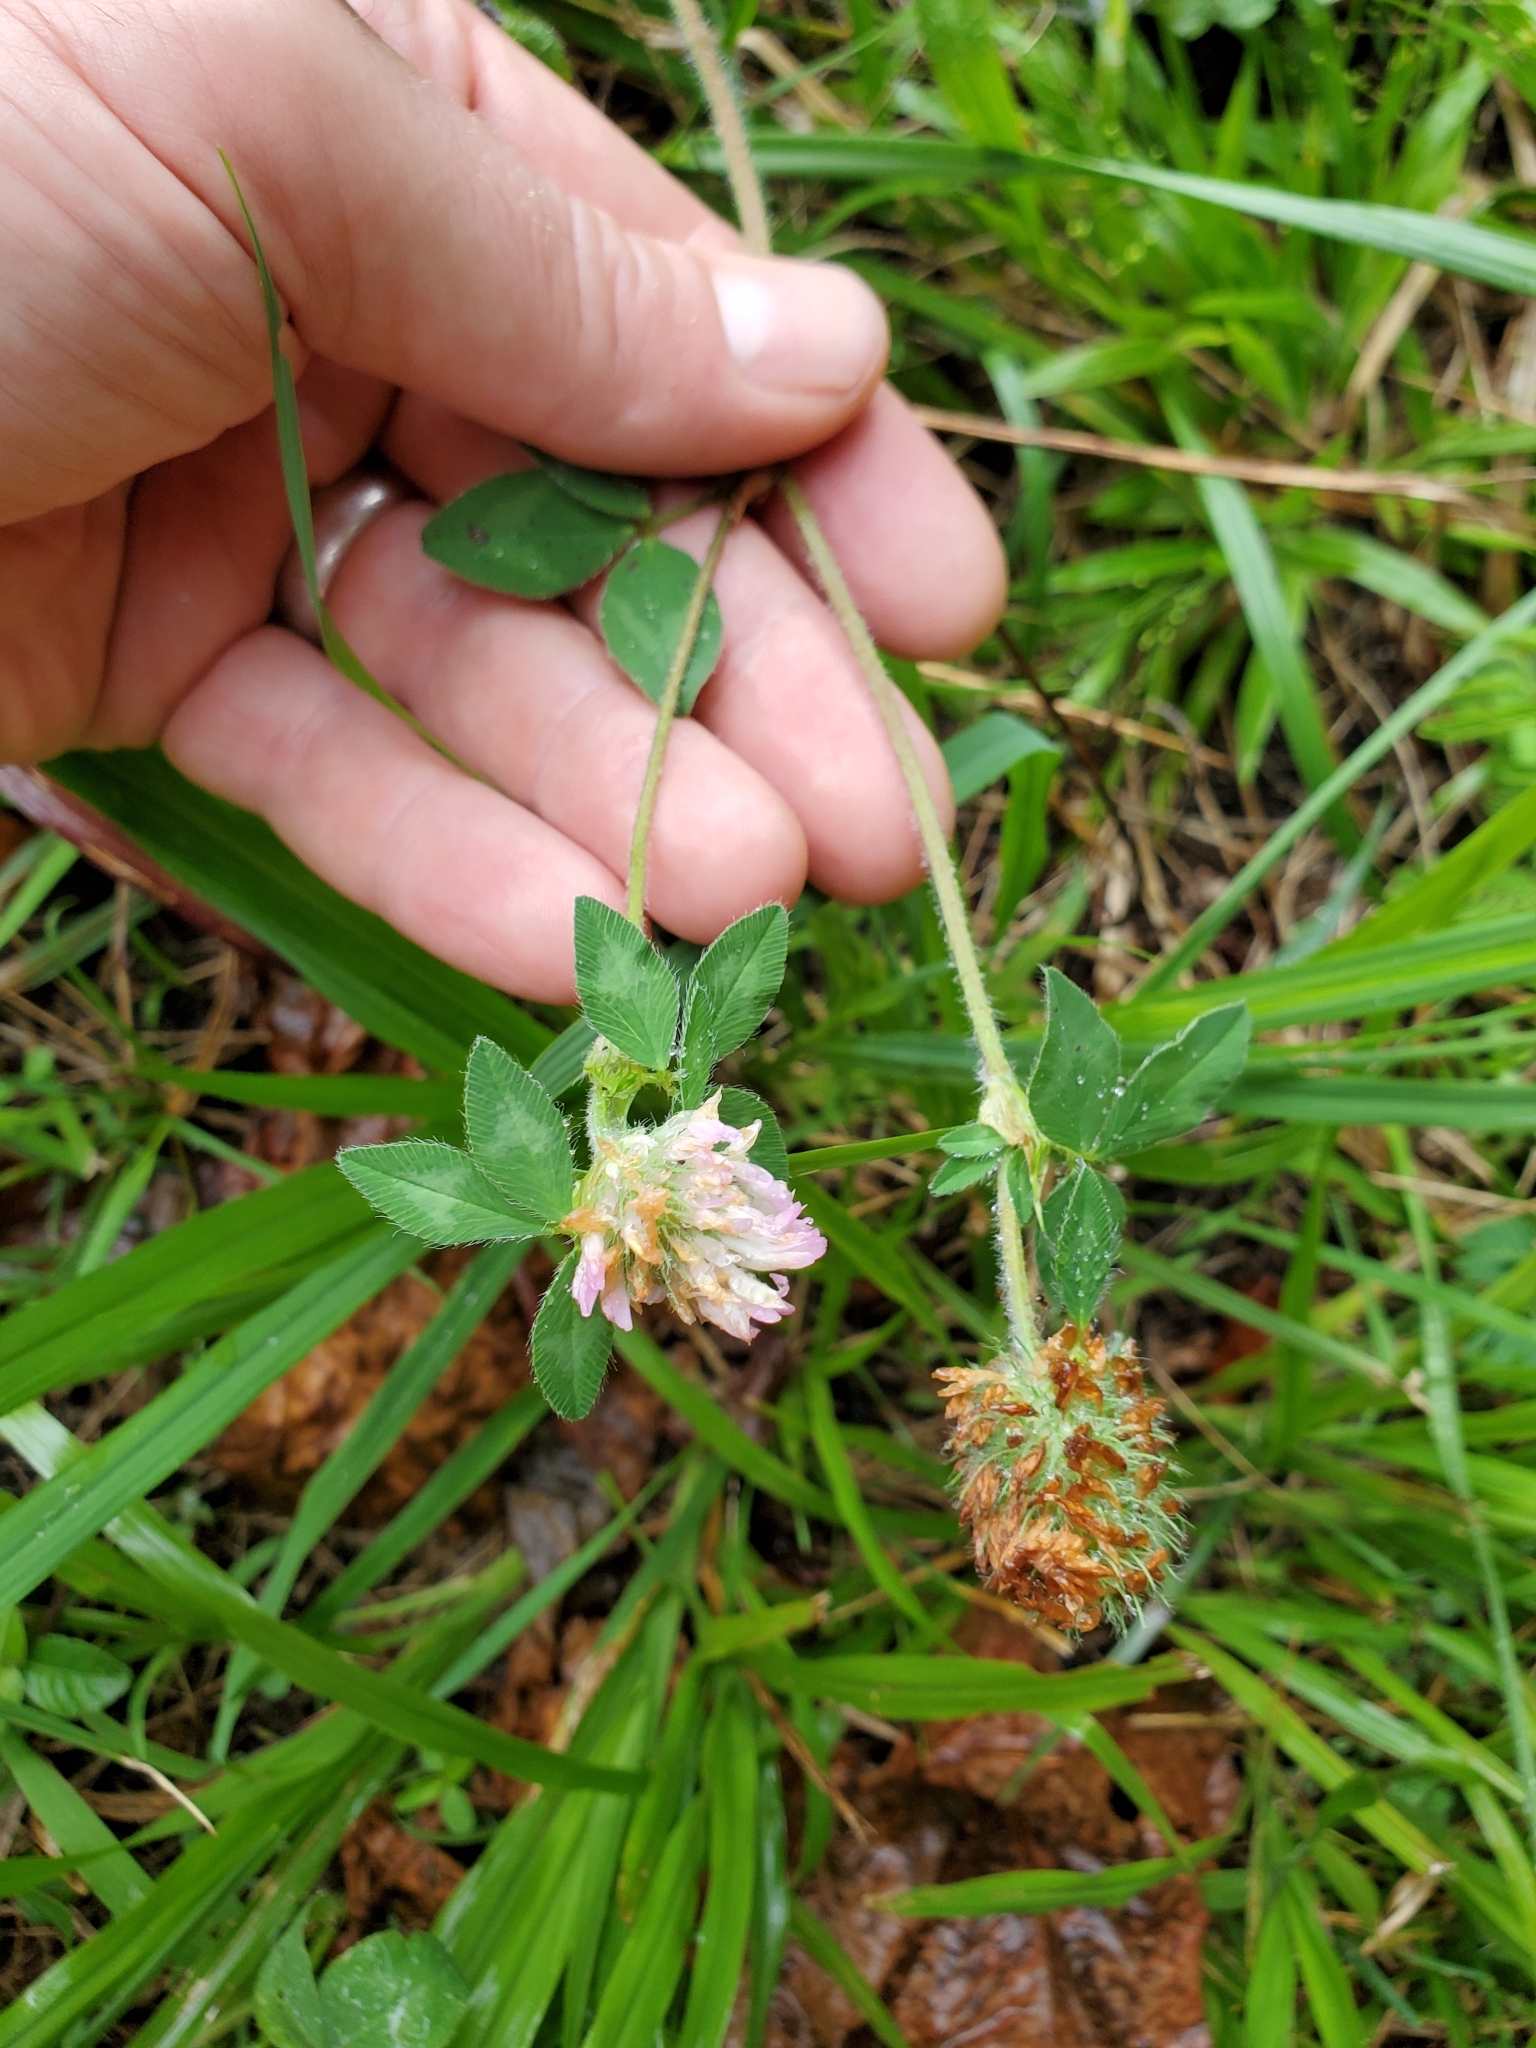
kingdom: Plantae
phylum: Tracheophyta
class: Magnoliopsida
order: Fabales
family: Fabaceae
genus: Trifolium
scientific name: Trifolium pratense
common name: Red clover
